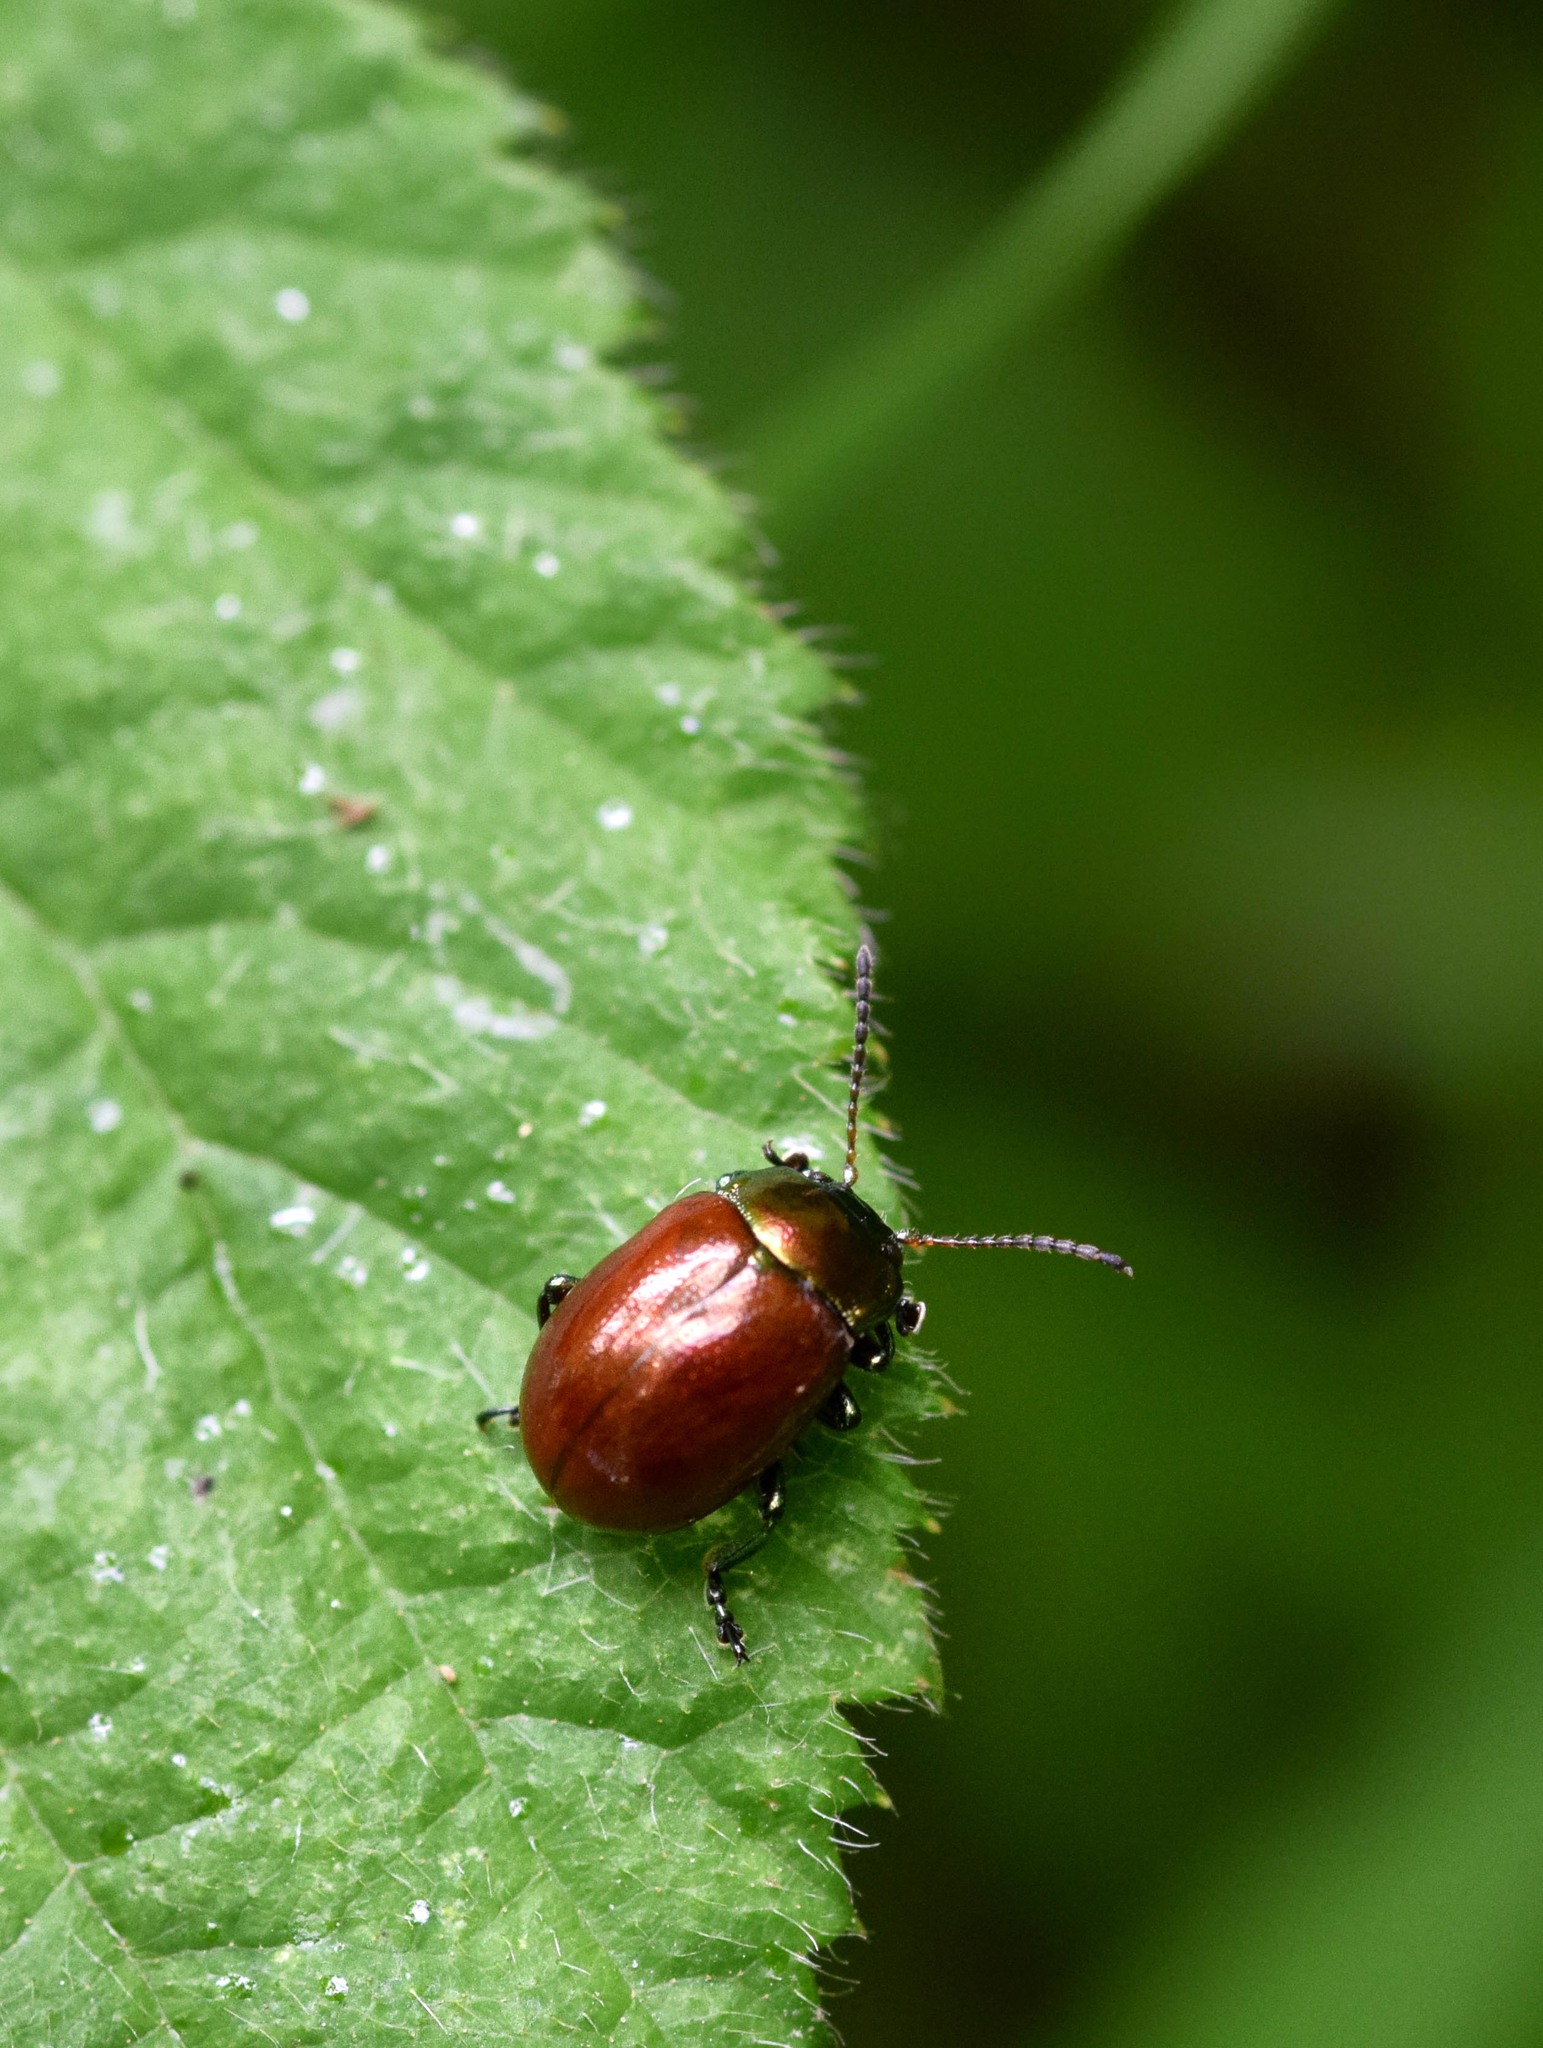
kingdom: Animalia
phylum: Arthropoda
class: Insecta
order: Coleoptera
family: Chrysomelidae
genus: Chrysomela
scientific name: Chrysomela polita
